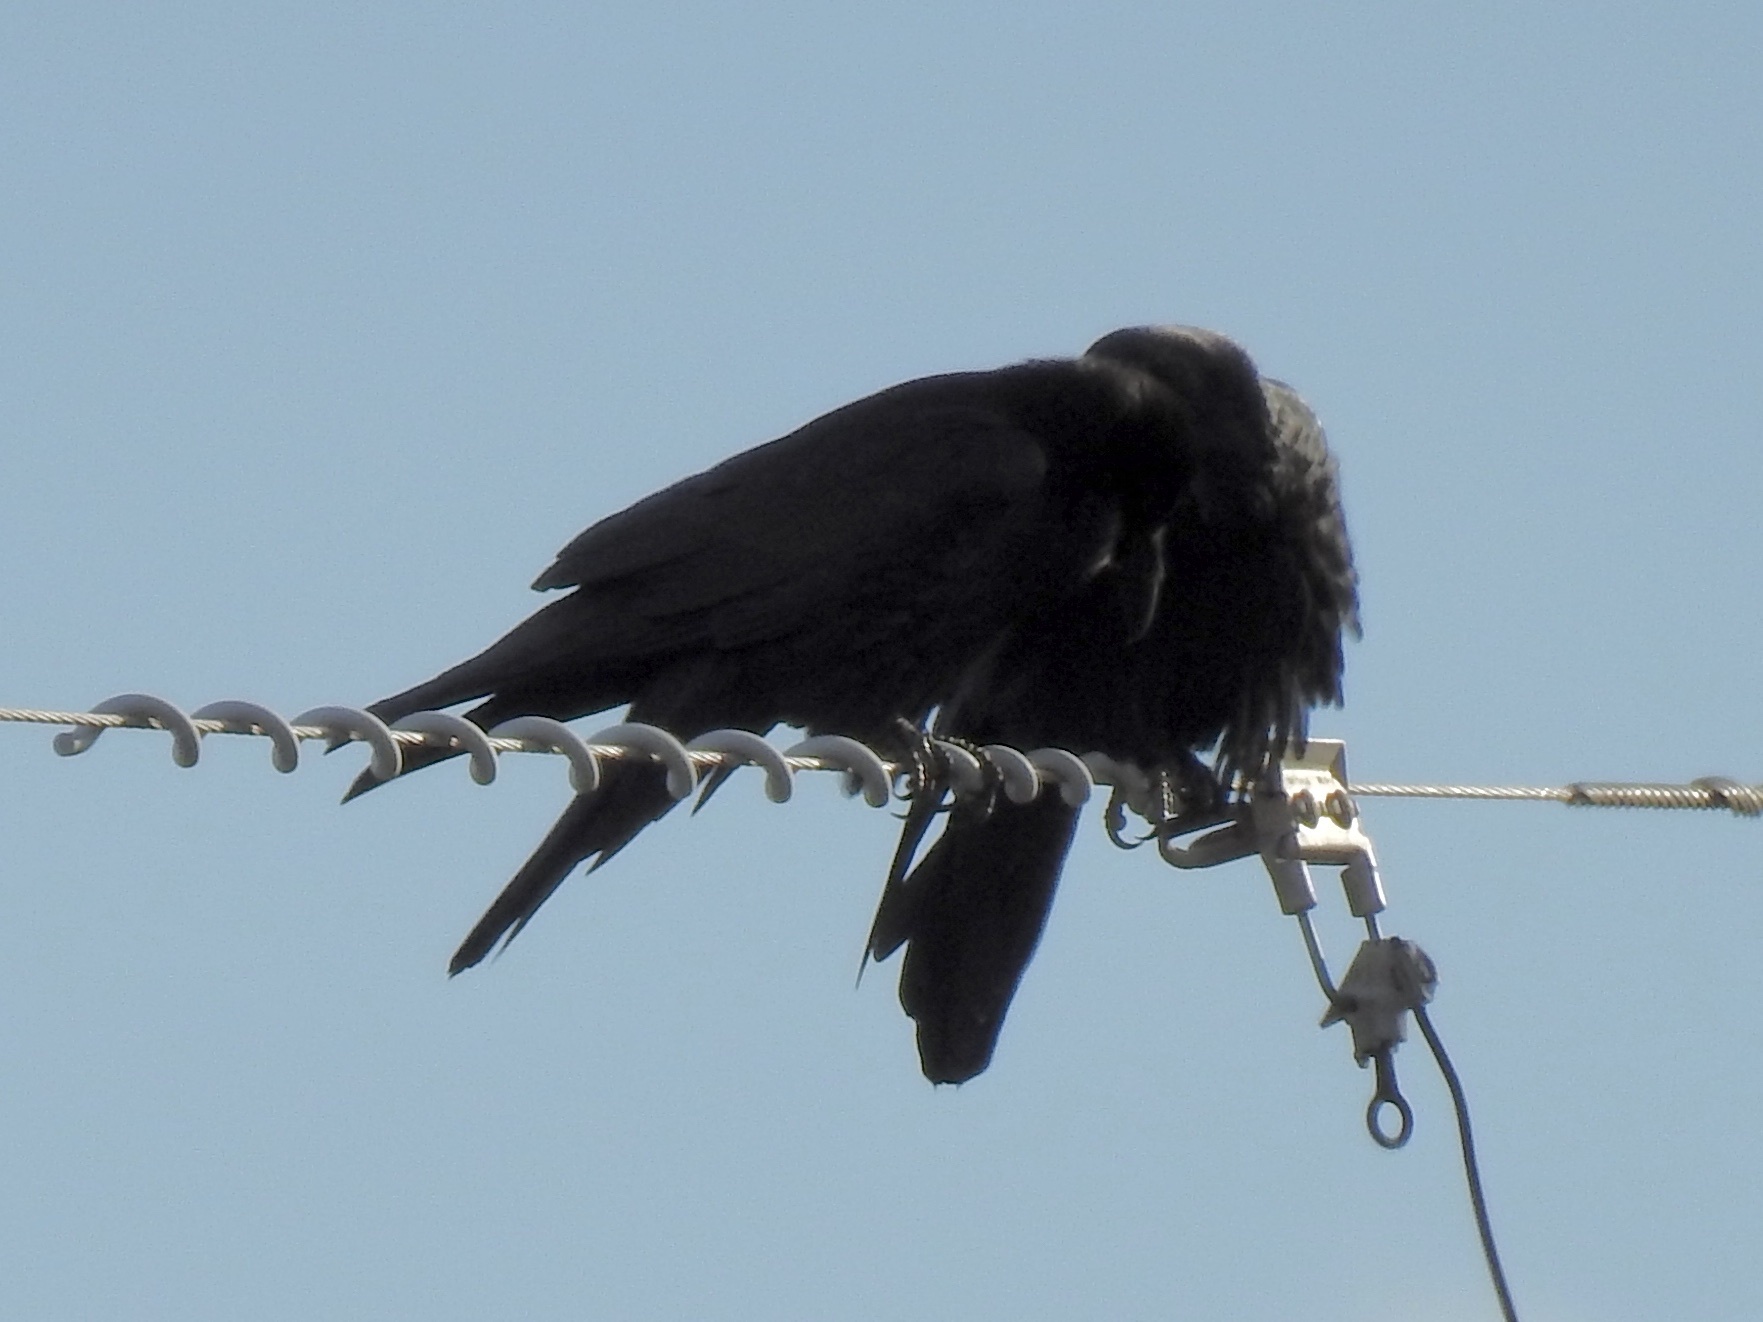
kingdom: Animalia
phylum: Chordata
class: Aves
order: Passeriformes
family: Corvidae
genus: Corvus
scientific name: Corvus corax
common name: Common raven
